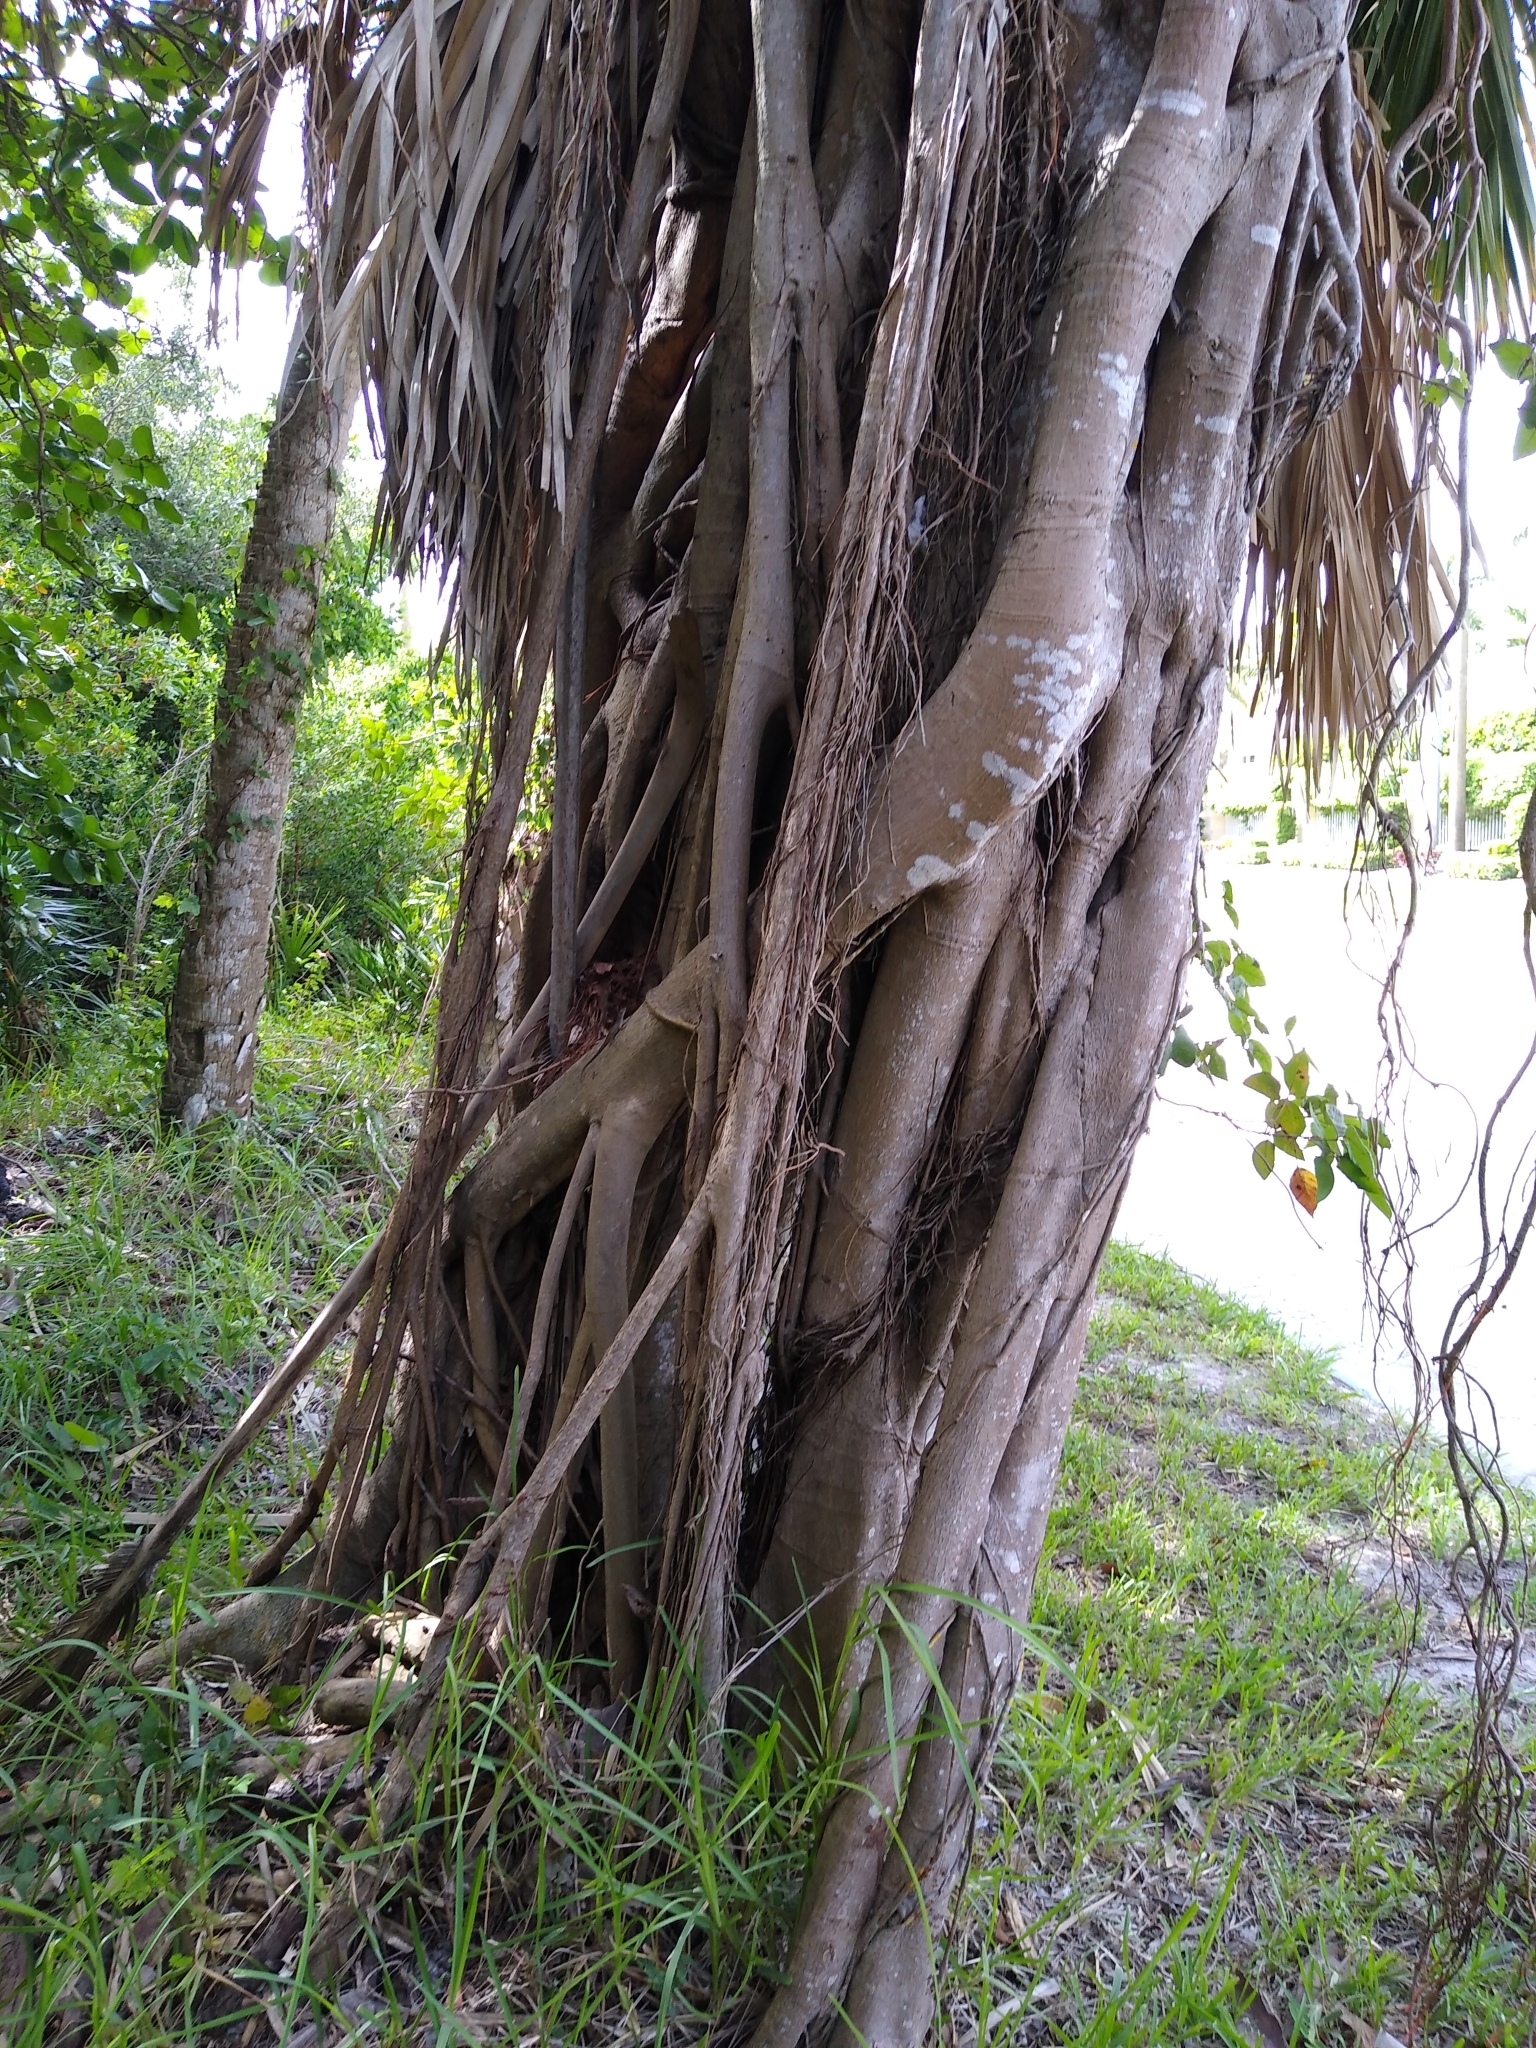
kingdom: Plantae
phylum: Tracheophyta
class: Magnoliopsida
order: Rosales
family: Moraceae
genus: Ficus
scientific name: Ficus aurea
